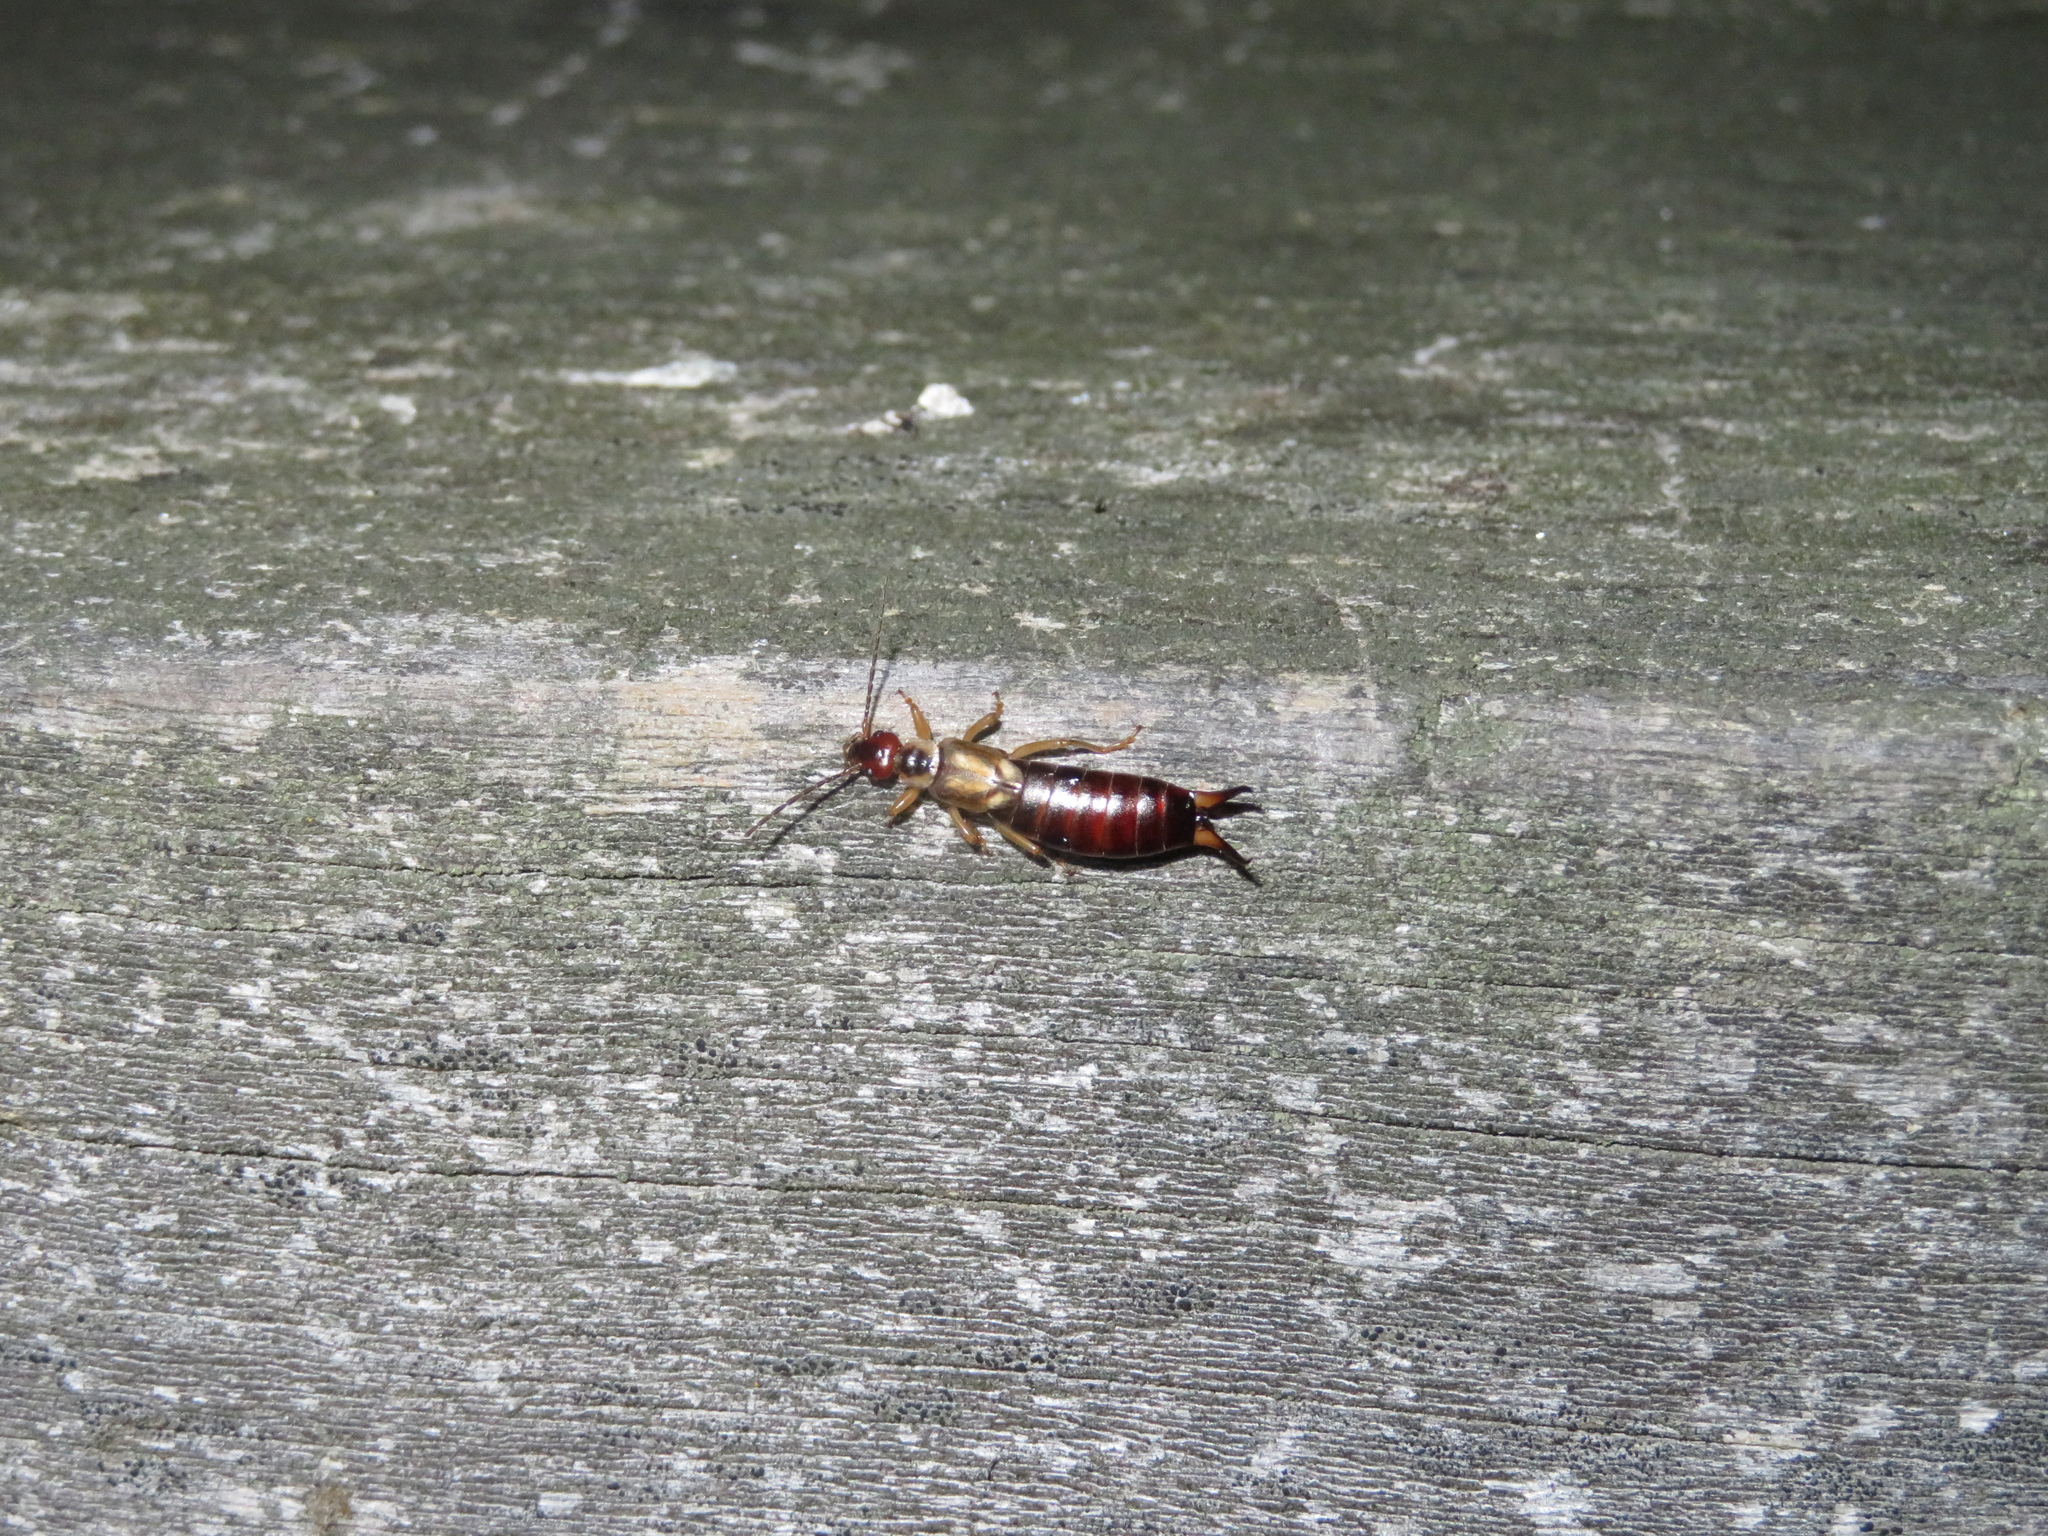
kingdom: Animalia
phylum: Arthropoda
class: Insecta
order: Dermaptera
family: Forficulidae
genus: Forficula
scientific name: Forficula
